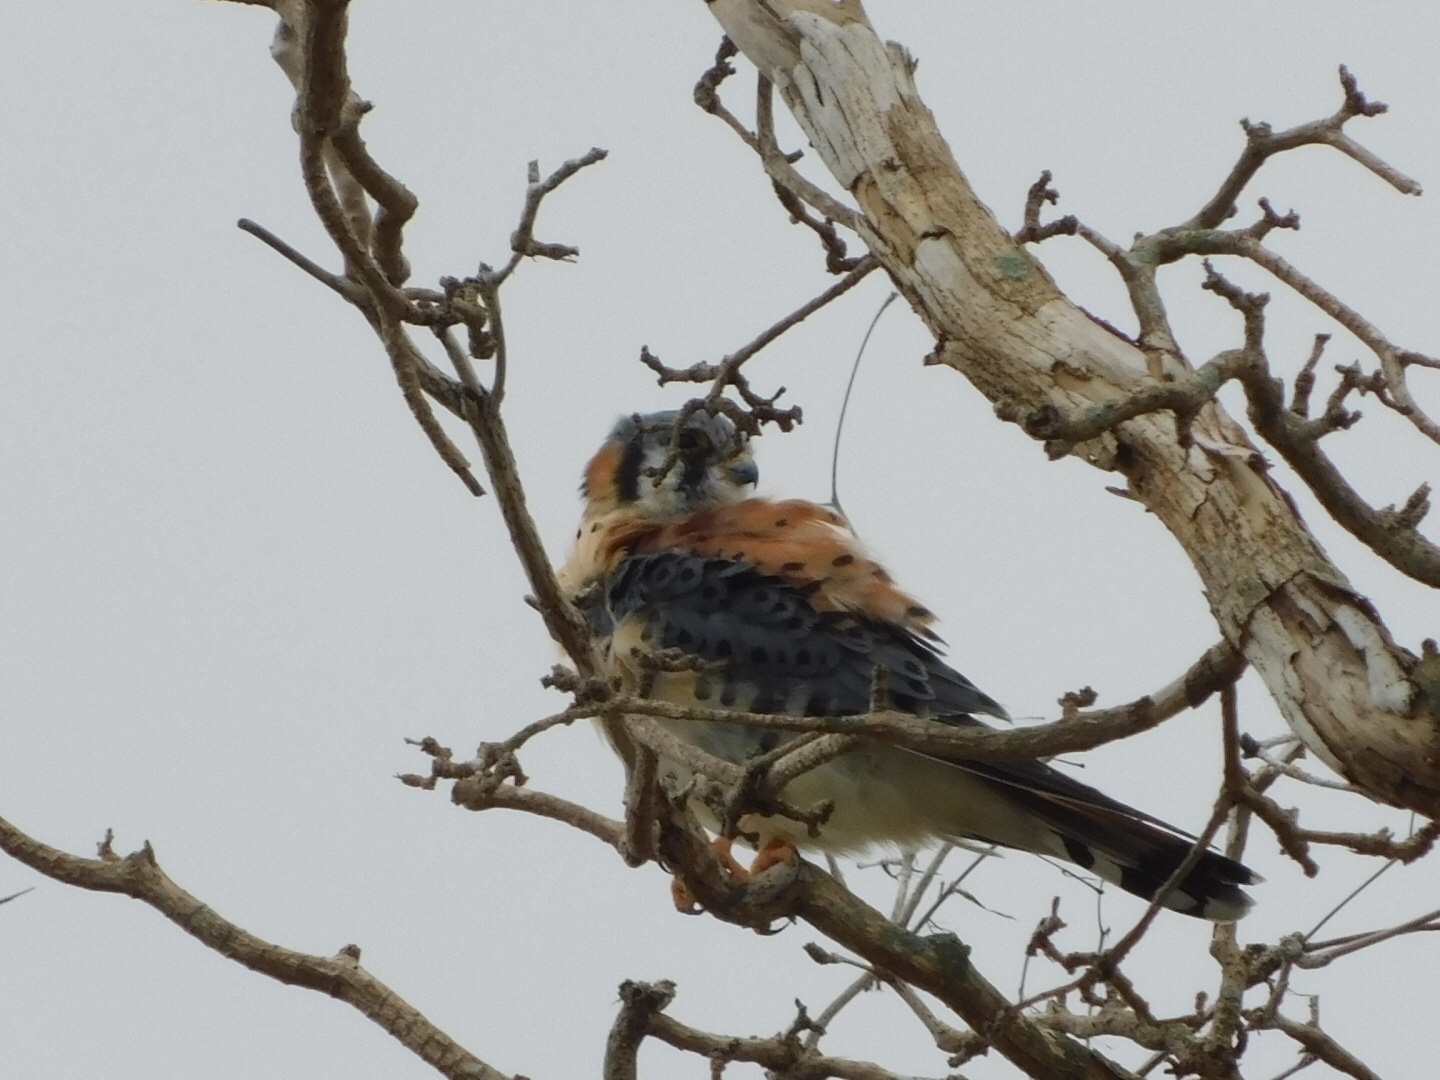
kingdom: Animalia
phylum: Chordata
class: Aves
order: Falconiformes
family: Falconidae
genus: Falco
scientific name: Falco sparverius
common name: American kestrel
